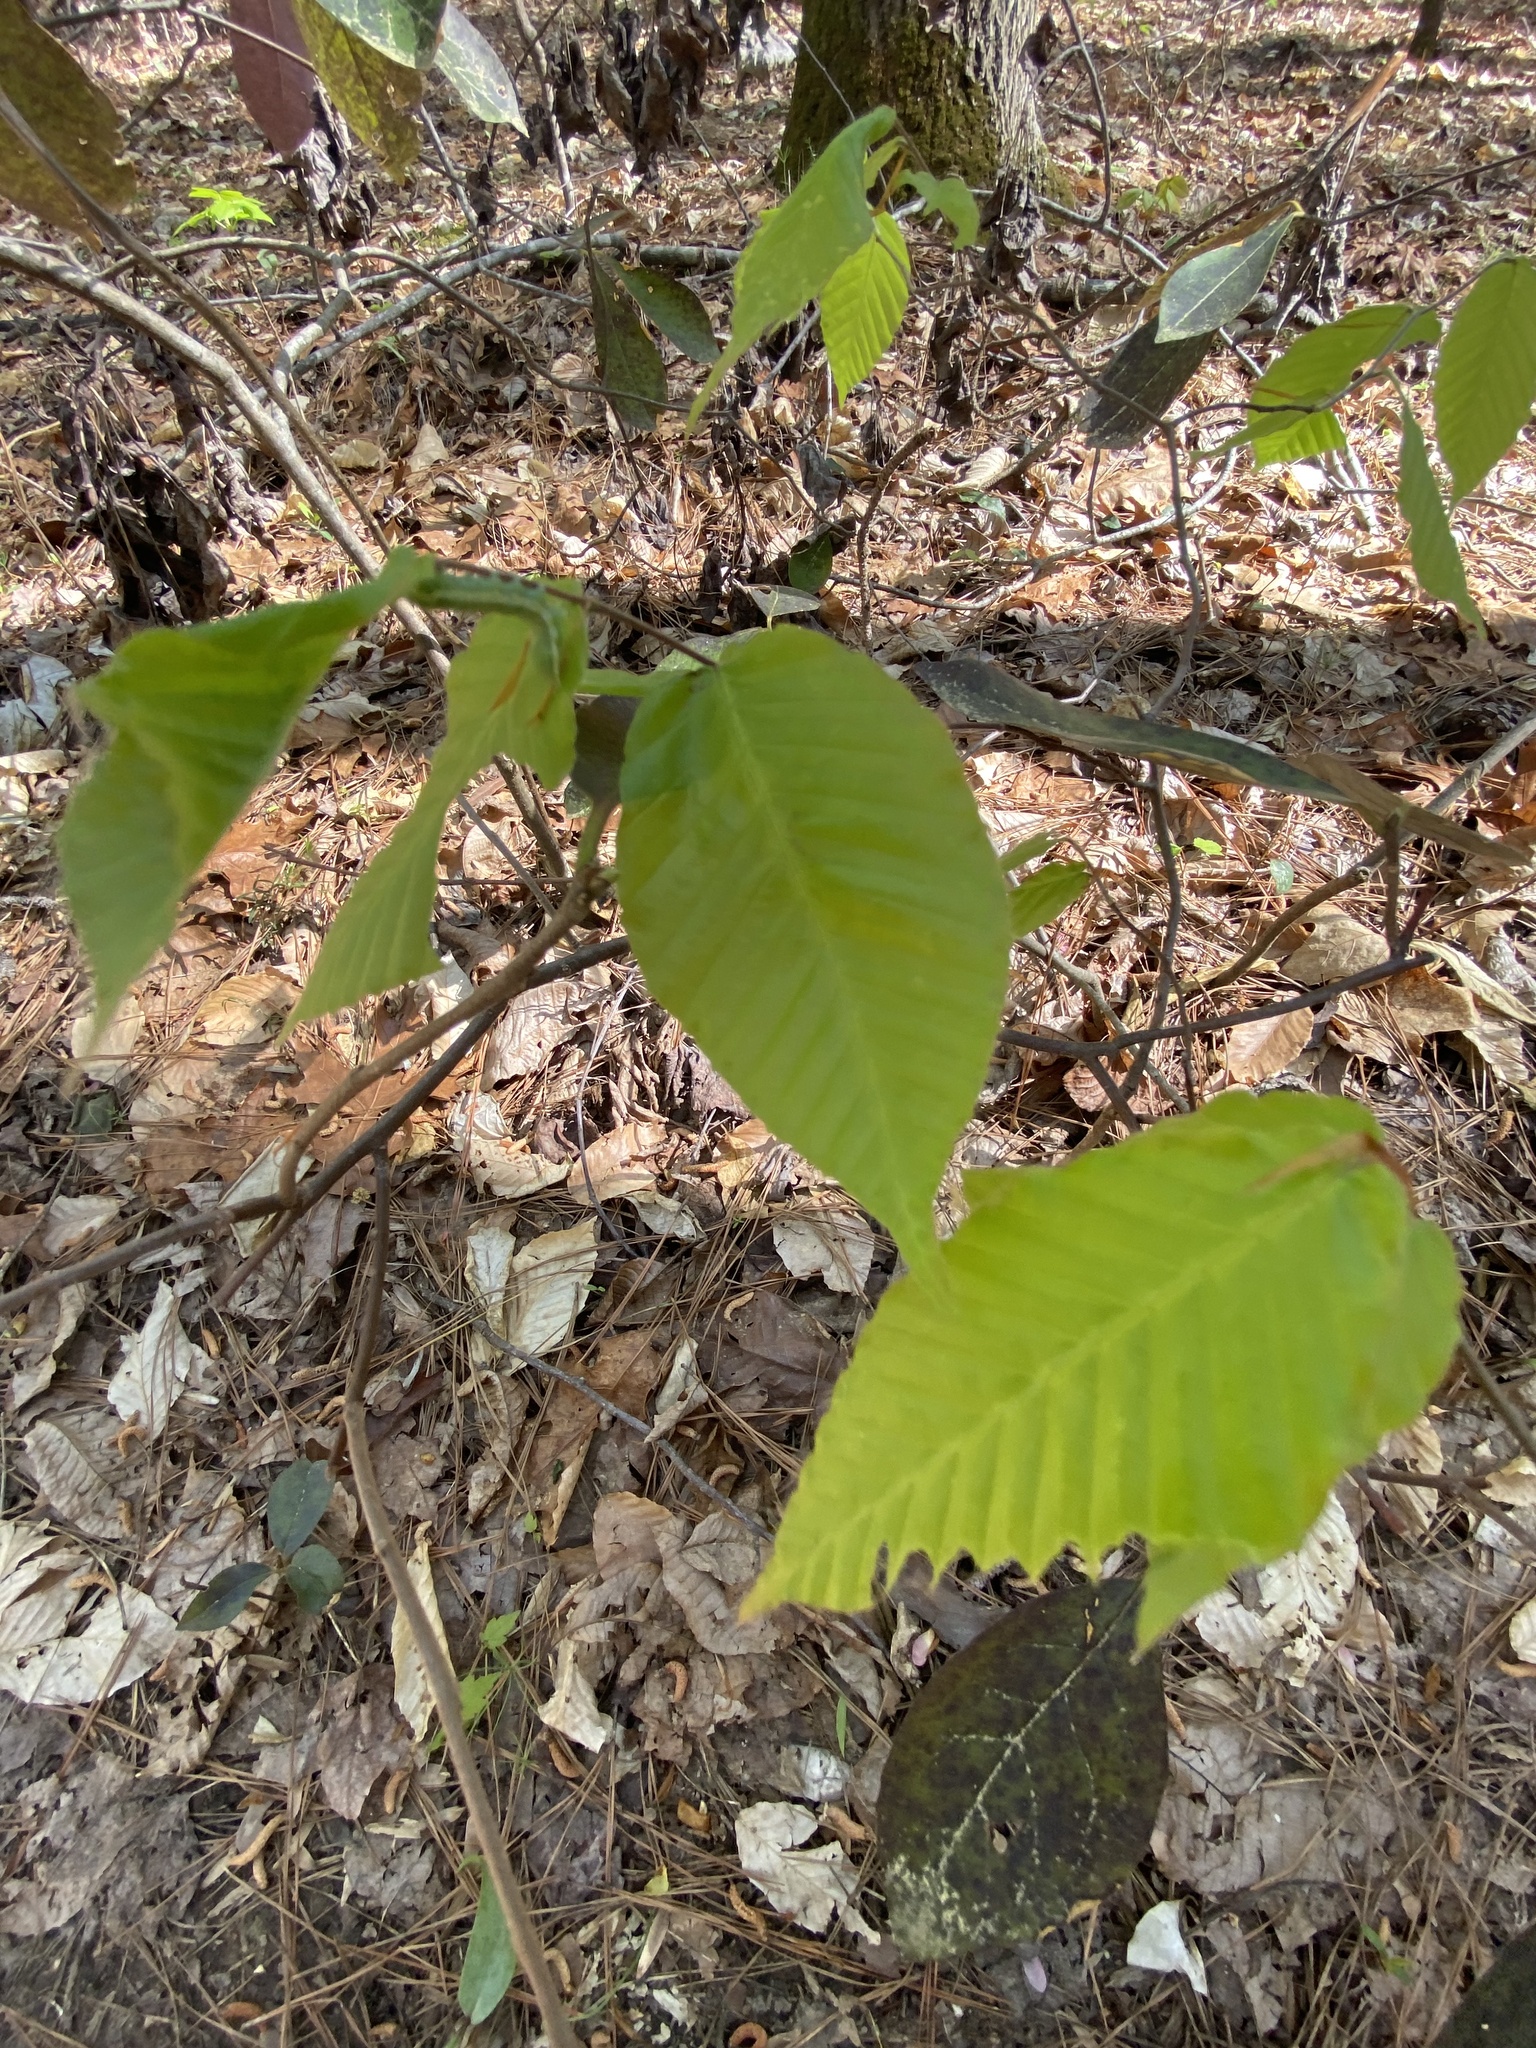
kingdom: Plantae
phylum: Tracheophyta
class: Magnoliopsida
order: Fagales
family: Fagaceae
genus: Fagus
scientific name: Fagus grandifolia
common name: American beech
